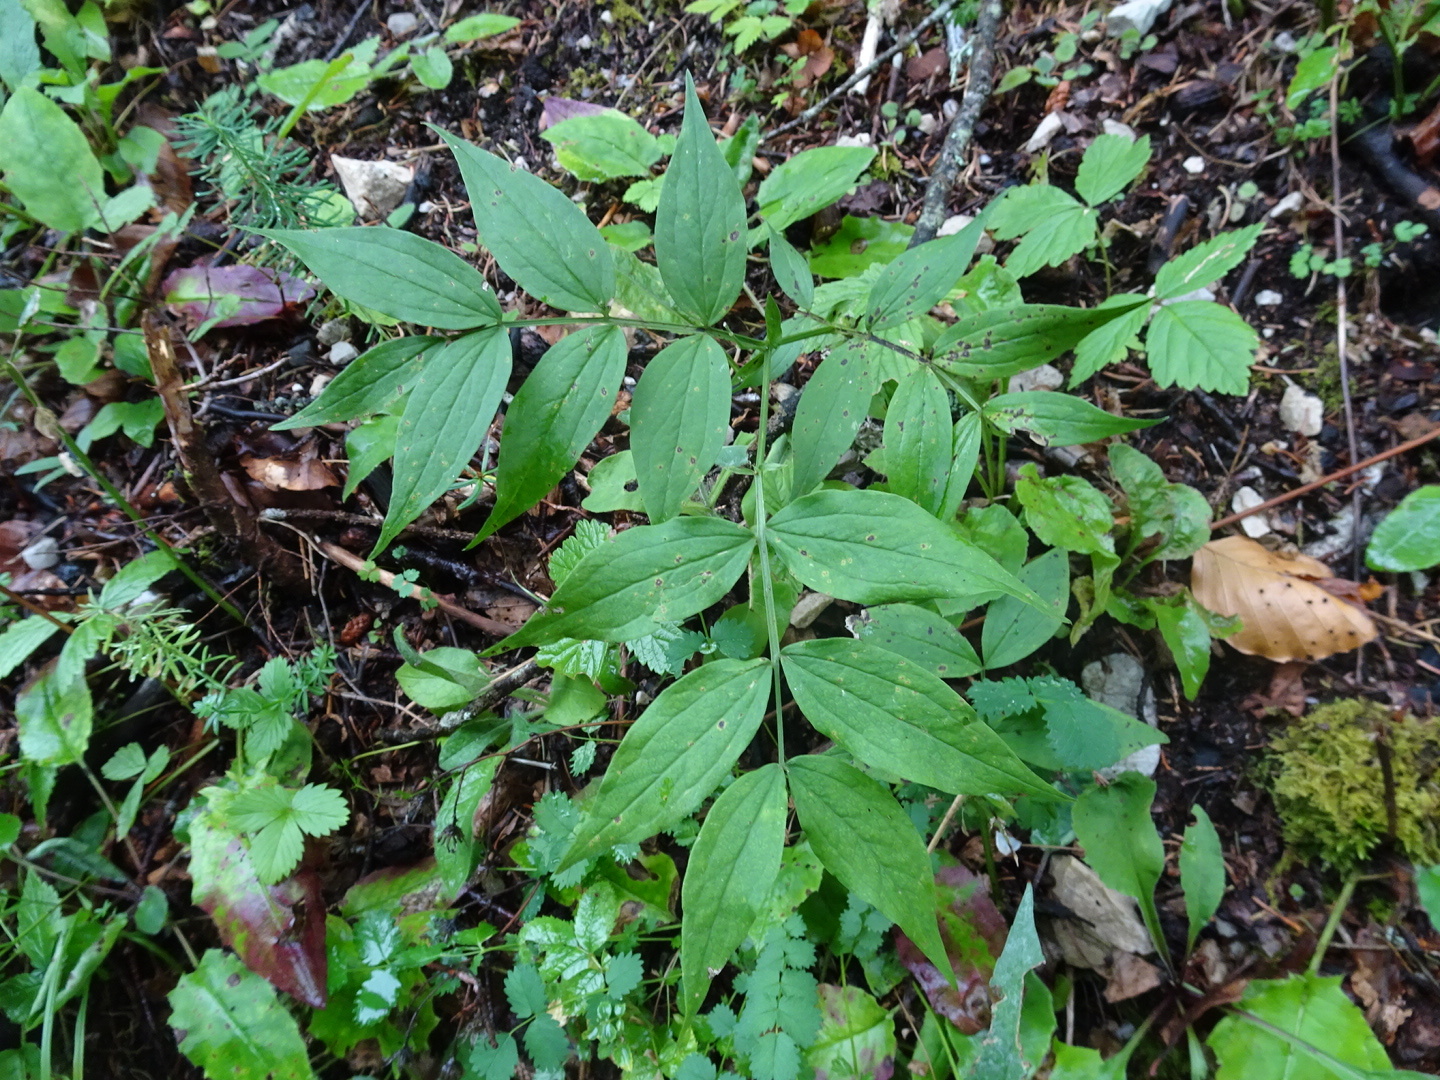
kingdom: Plantae
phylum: Tracheophyta
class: Magnoliopsida
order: Fabales
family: Fabaceae
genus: Lathyrus
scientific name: Lathyrus vernus
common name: Spring pea
